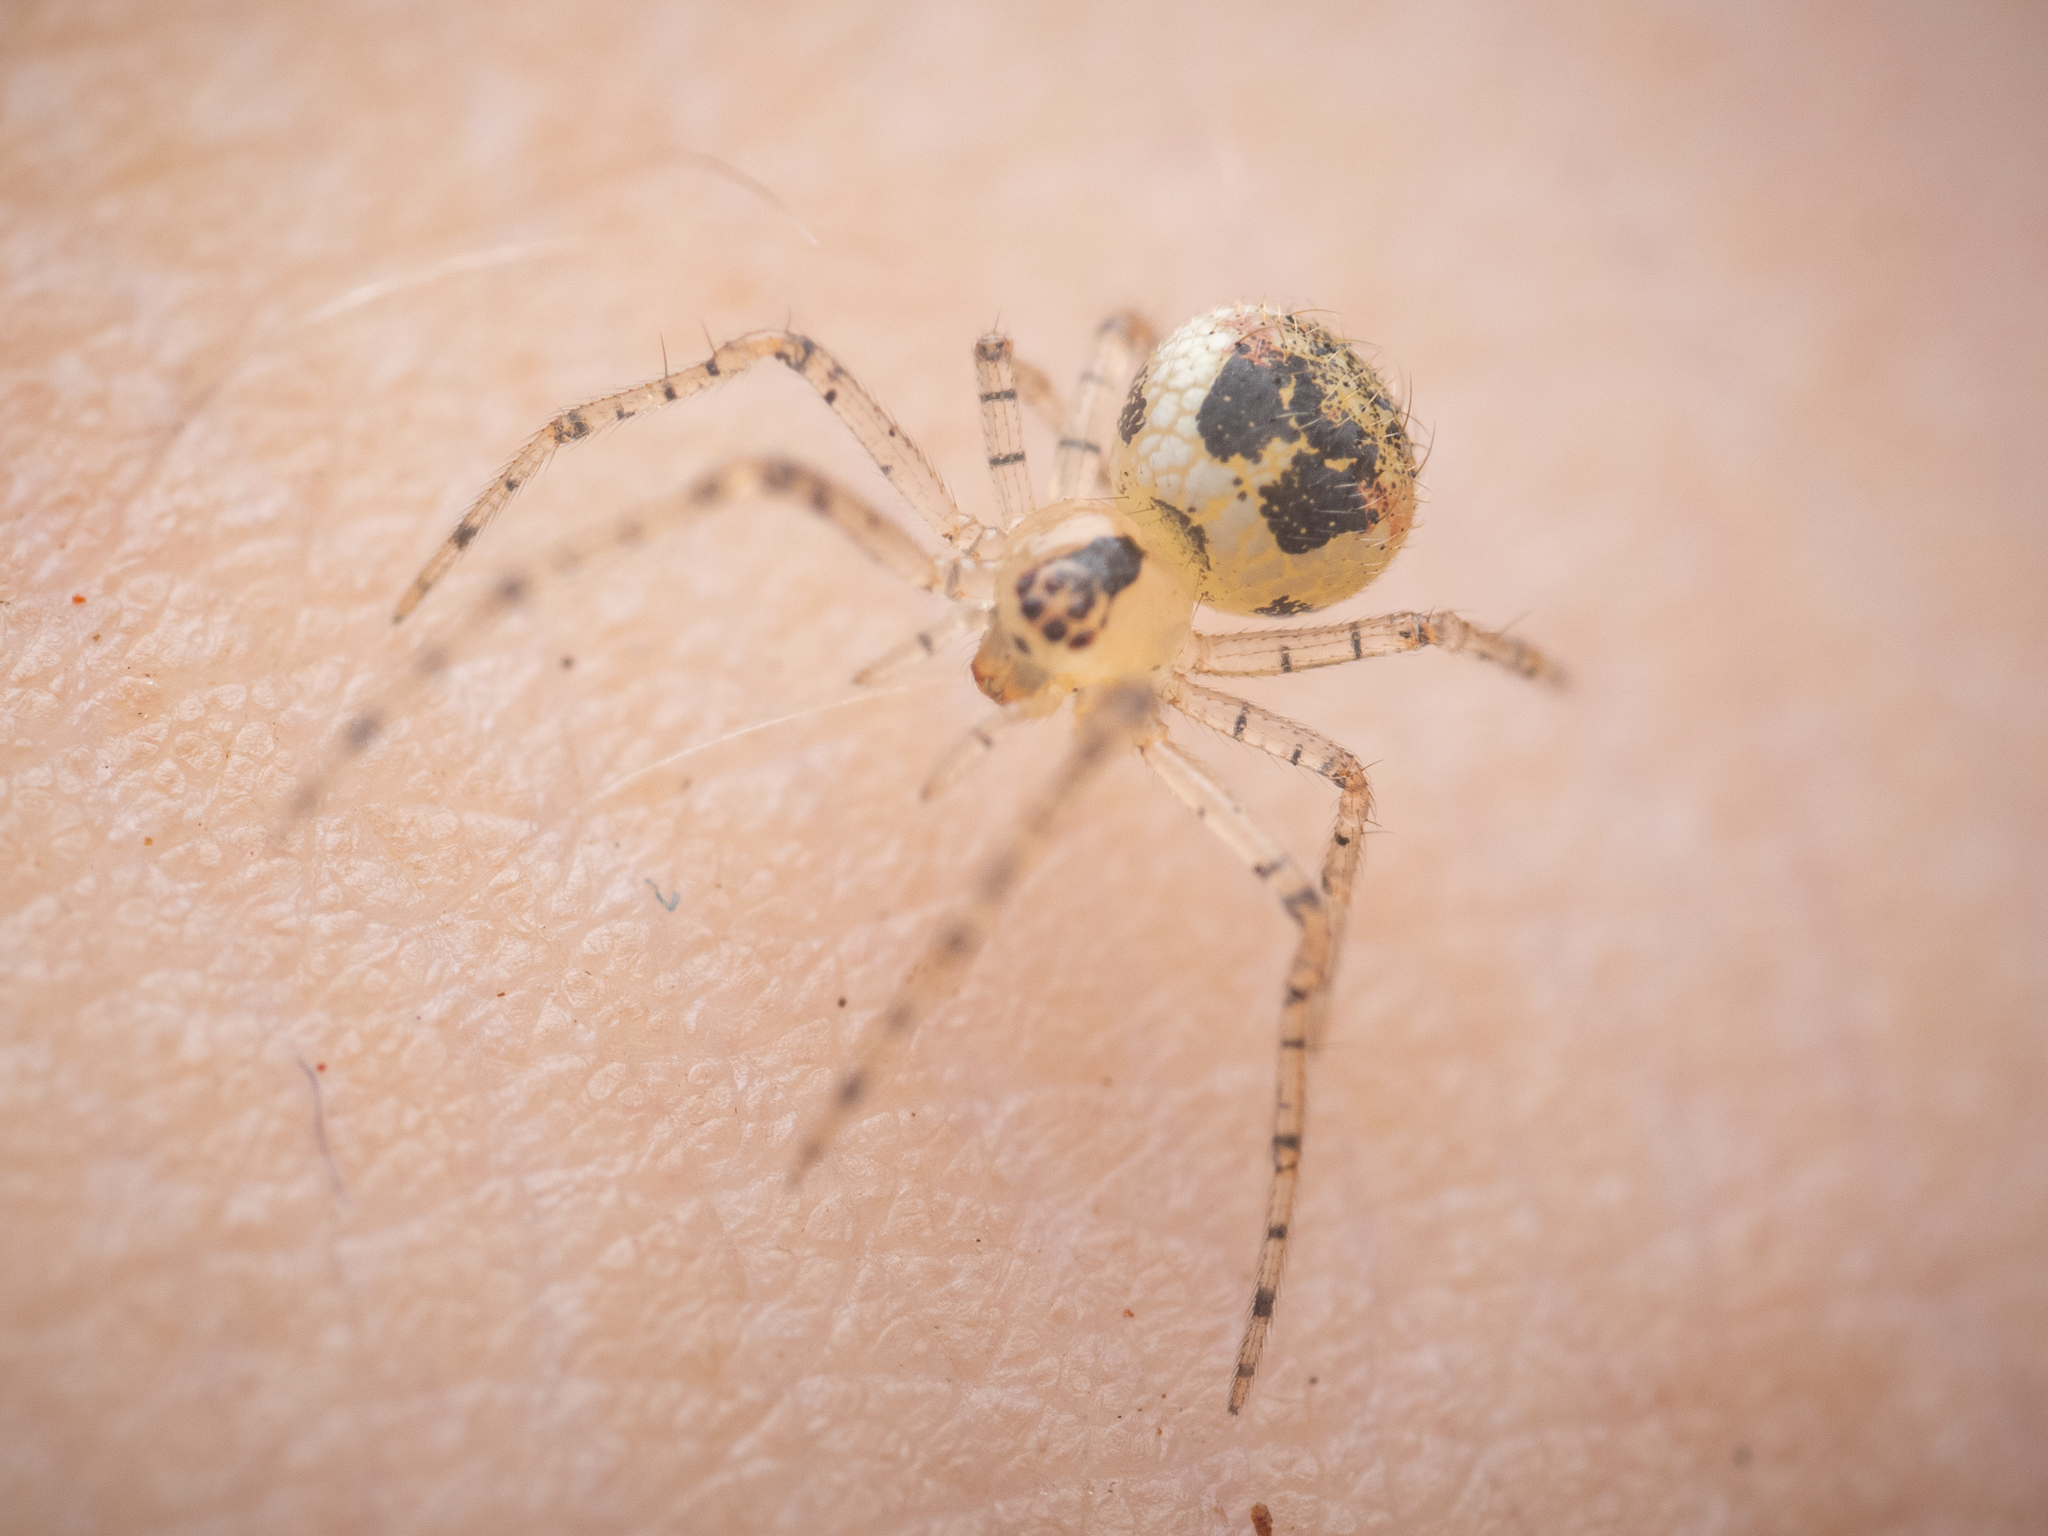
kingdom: Animalia
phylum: Arthropoda
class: Arachnida
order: Araneae
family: Theridiidae
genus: Platnickina
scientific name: Platnickina tincta
